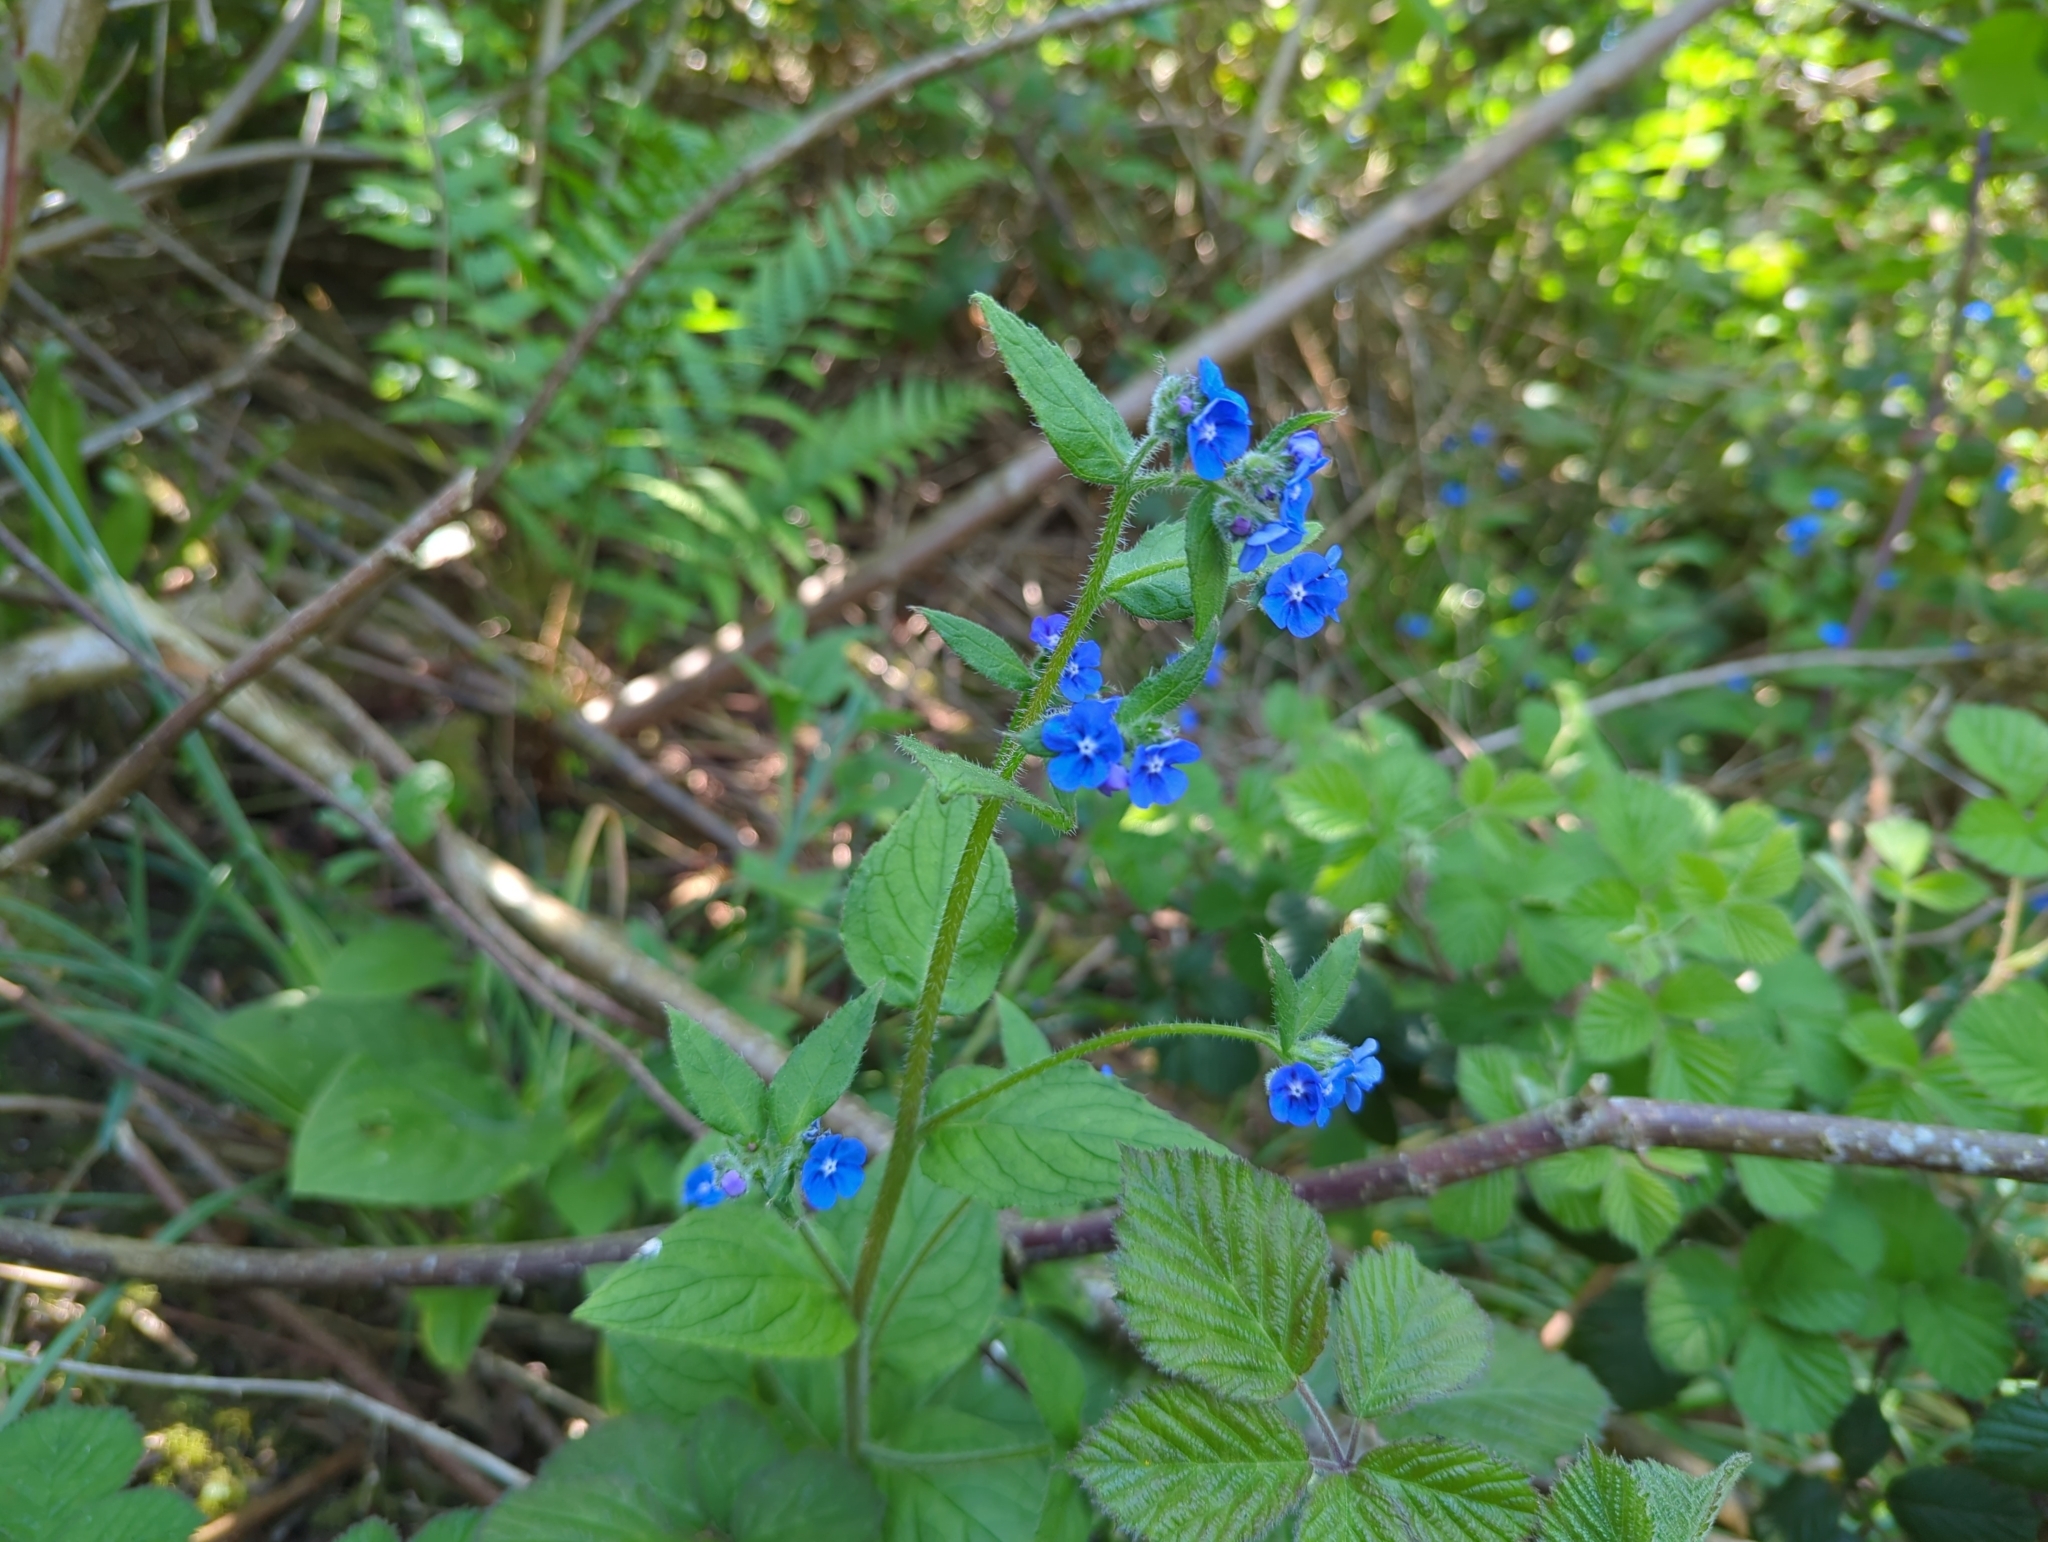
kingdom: Plantae
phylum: Tracheophyta
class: Magnoliopsida
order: Boraginales
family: Boraginaceae
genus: Pentaglottis
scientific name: Pentaglottis sempervirens
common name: Green alkanet
